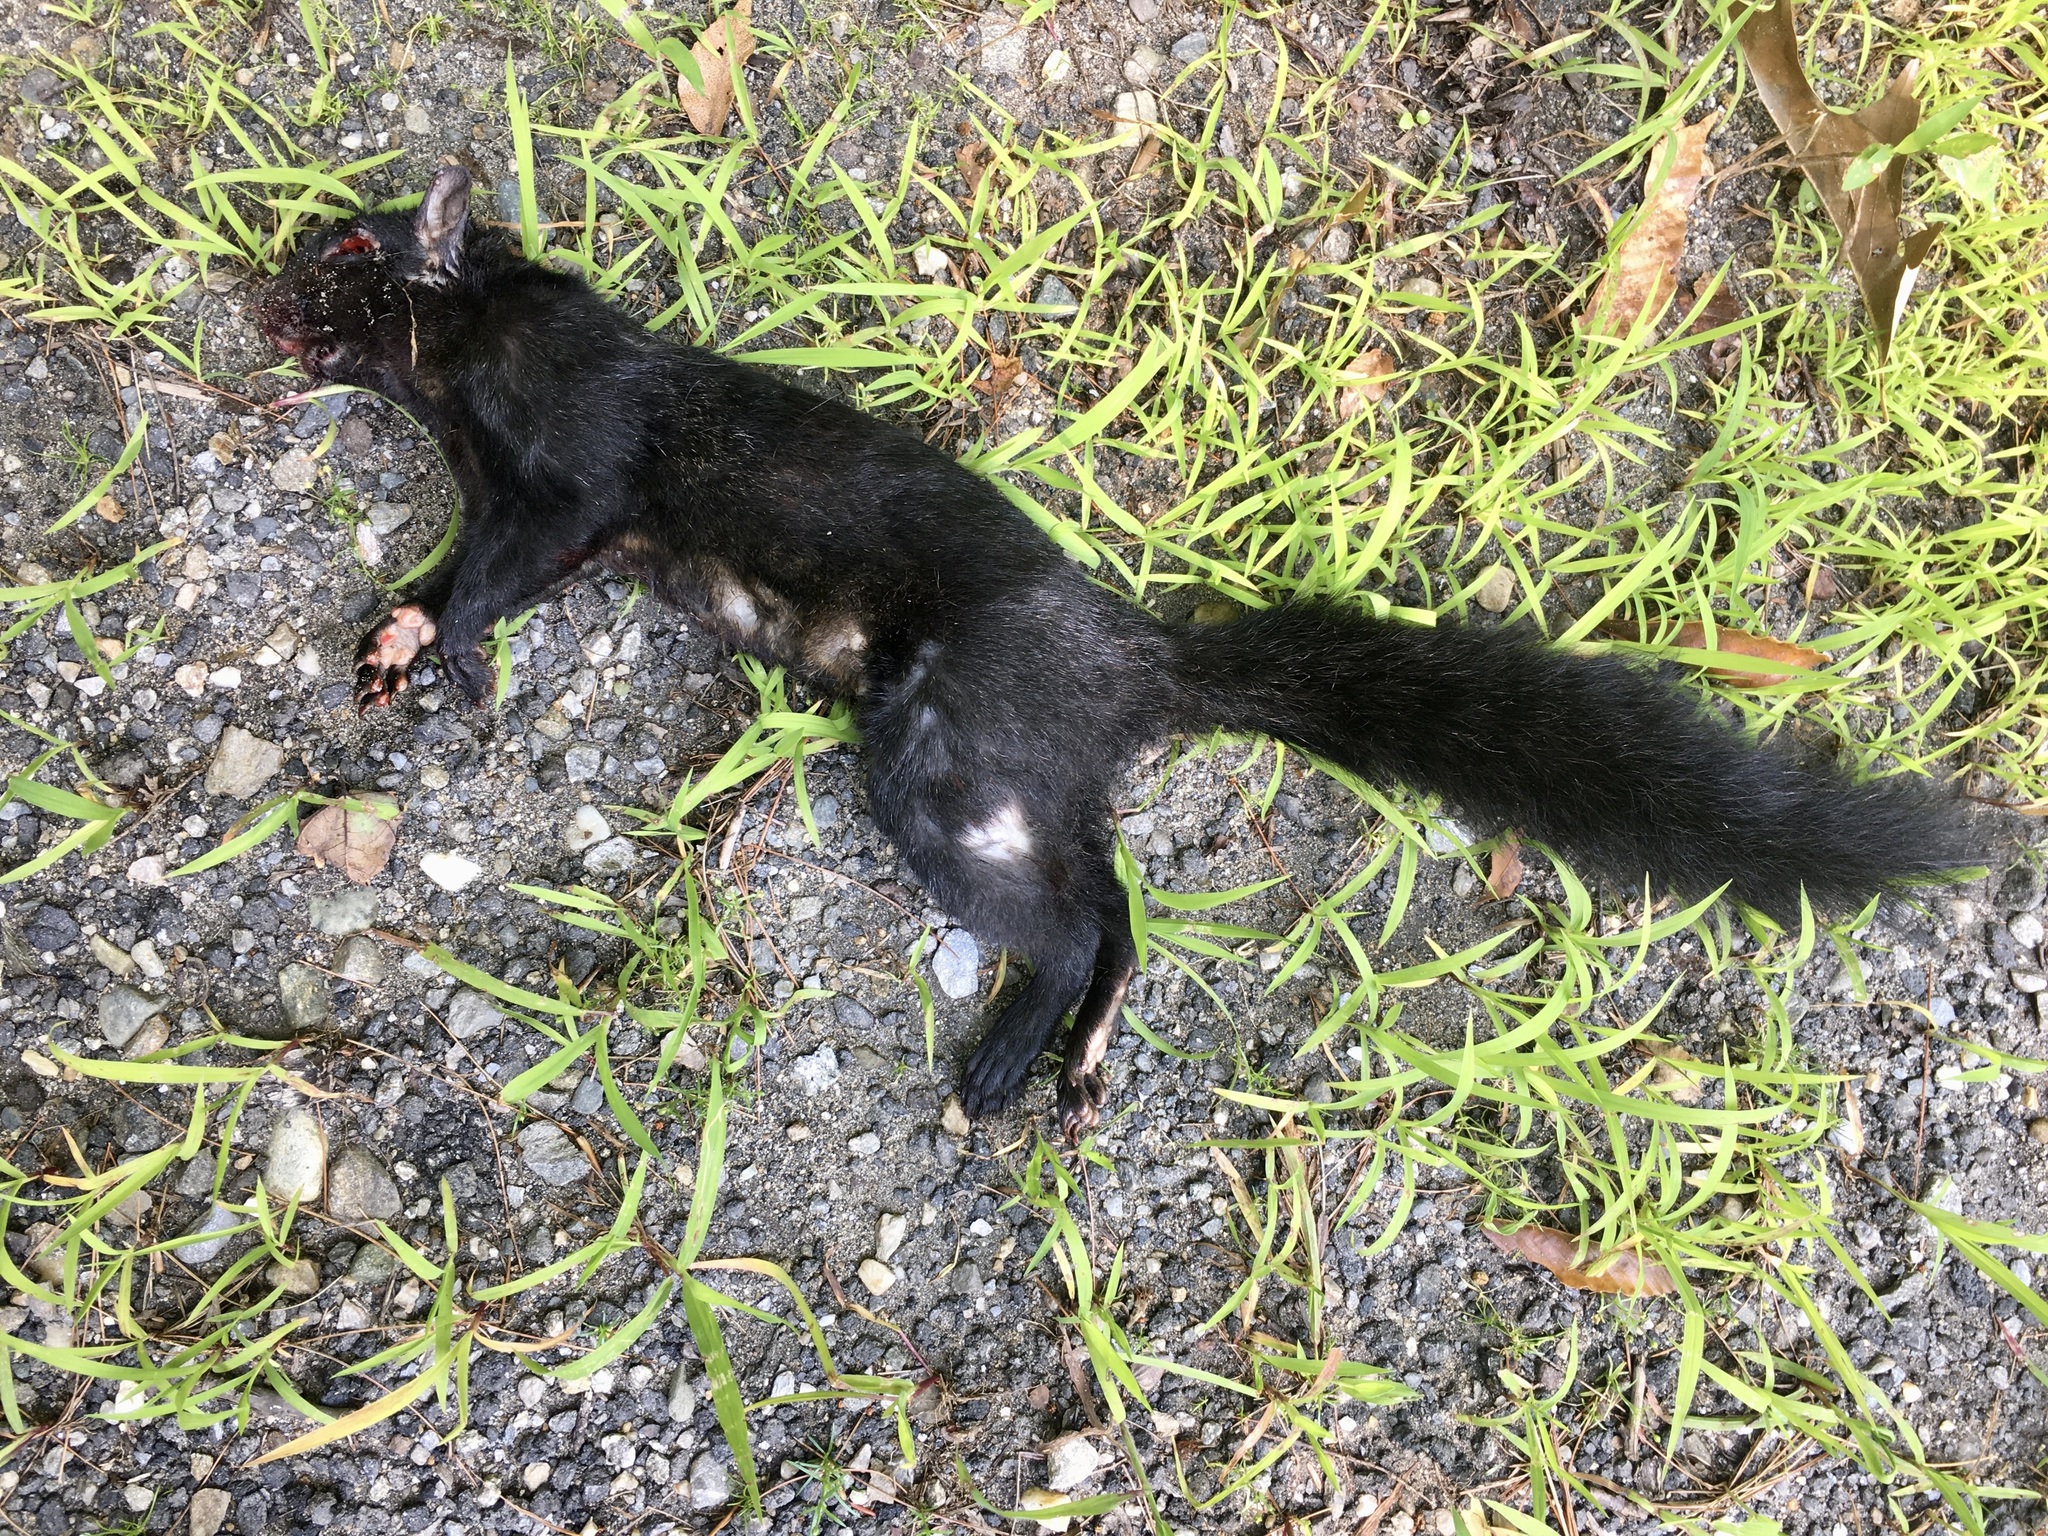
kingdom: Animalia
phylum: Chordata
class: Mammalia
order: Rodentia
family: Sciuridae
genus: Sciurus
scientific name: Sciurus carolinensis
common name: Eastern gray squirrel
